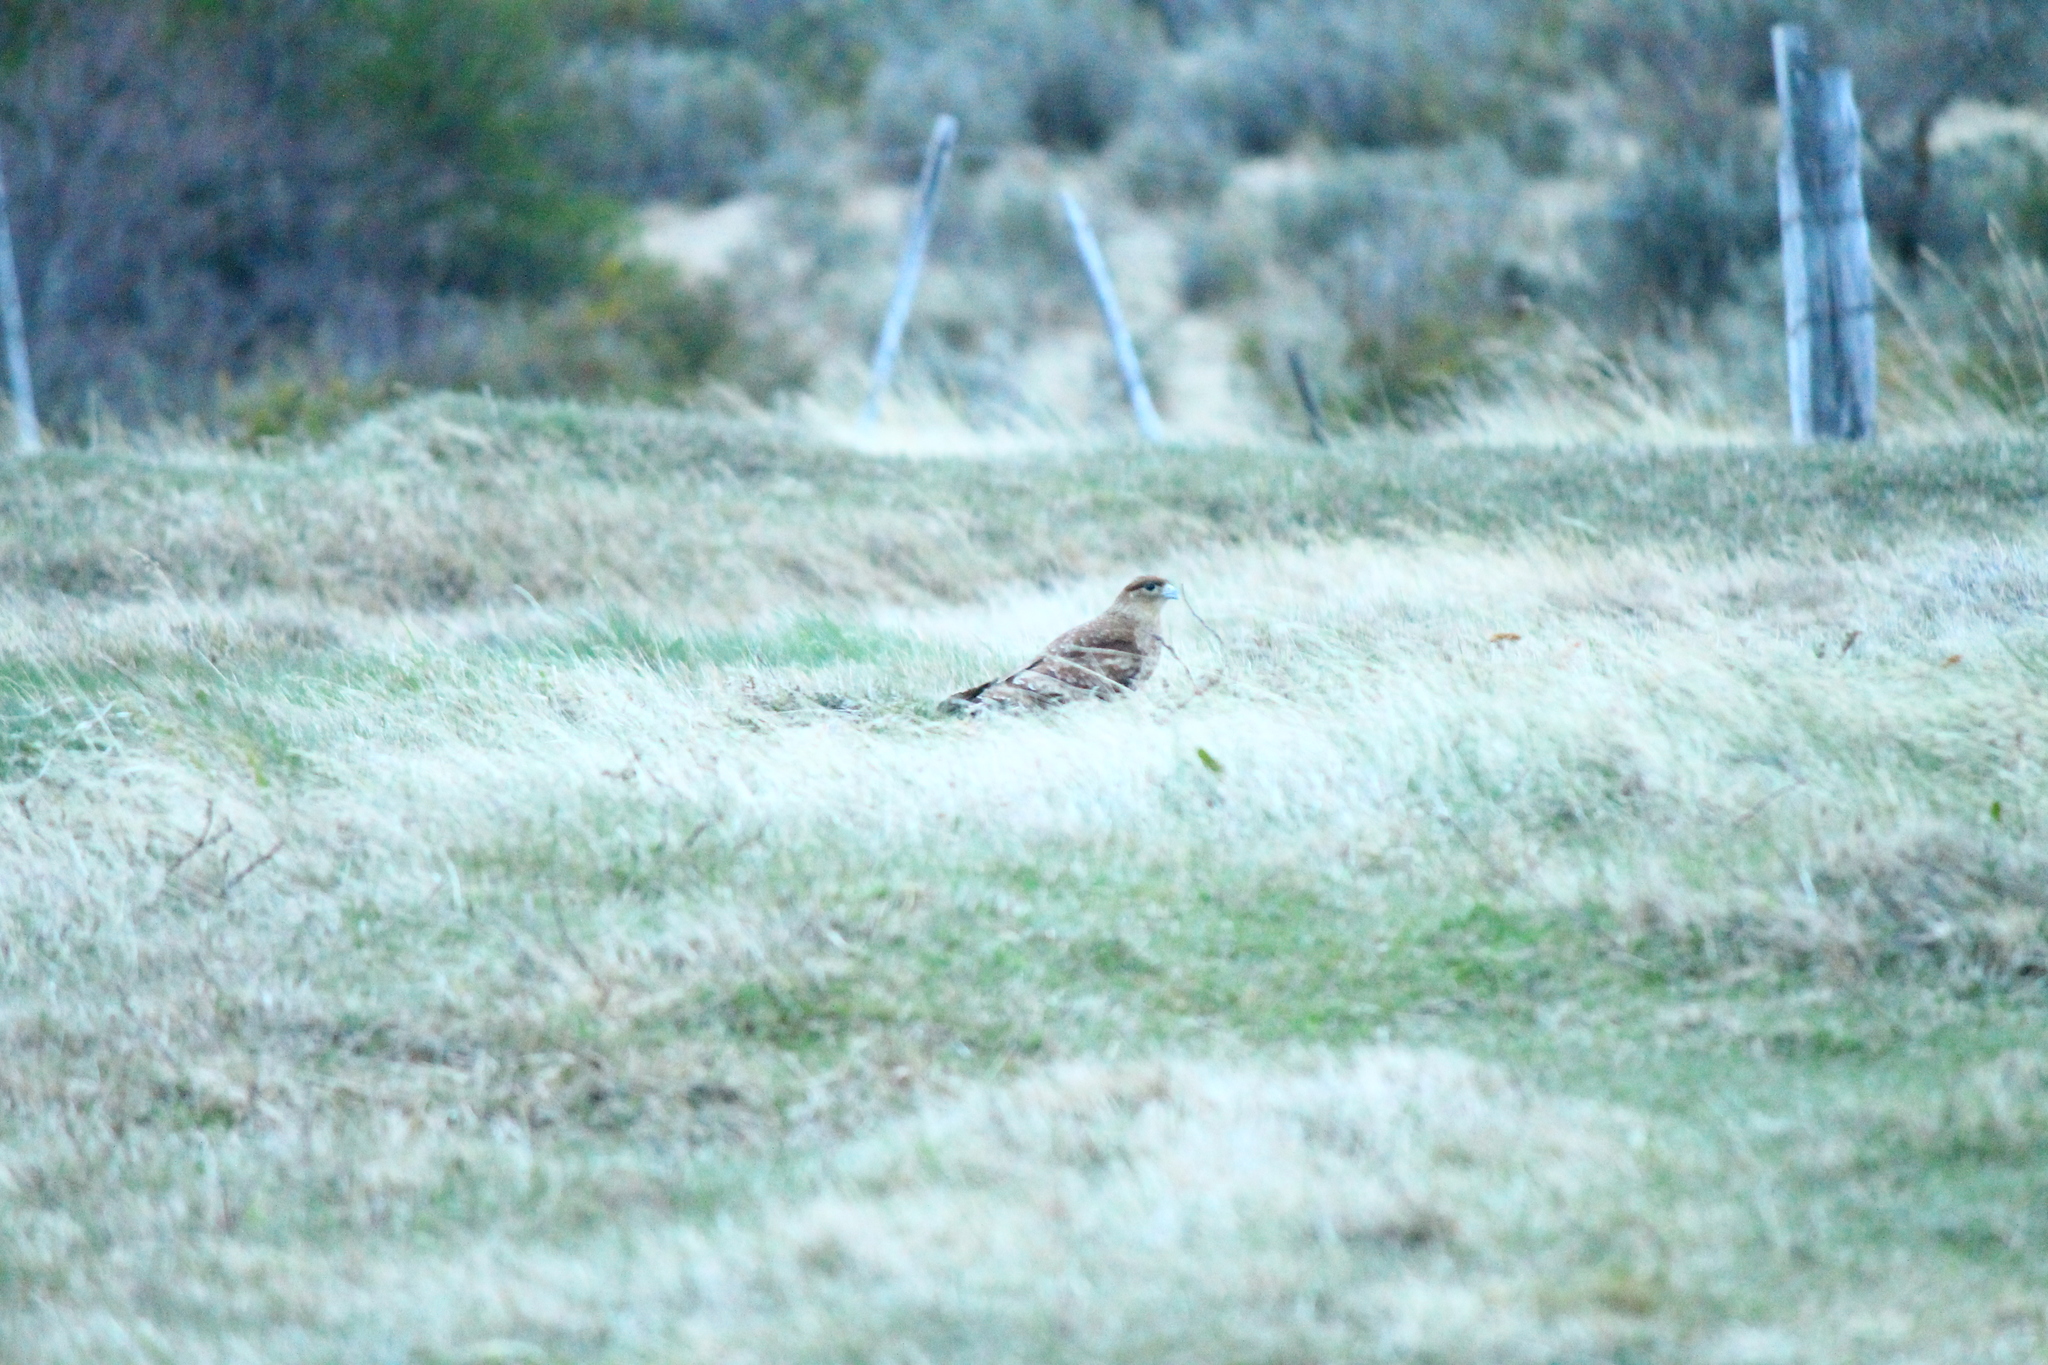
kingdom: Animalia
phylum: Chordata
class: Aves
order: Falconiformes
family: Falconidae
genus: Daptrius
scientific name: Daptrius
